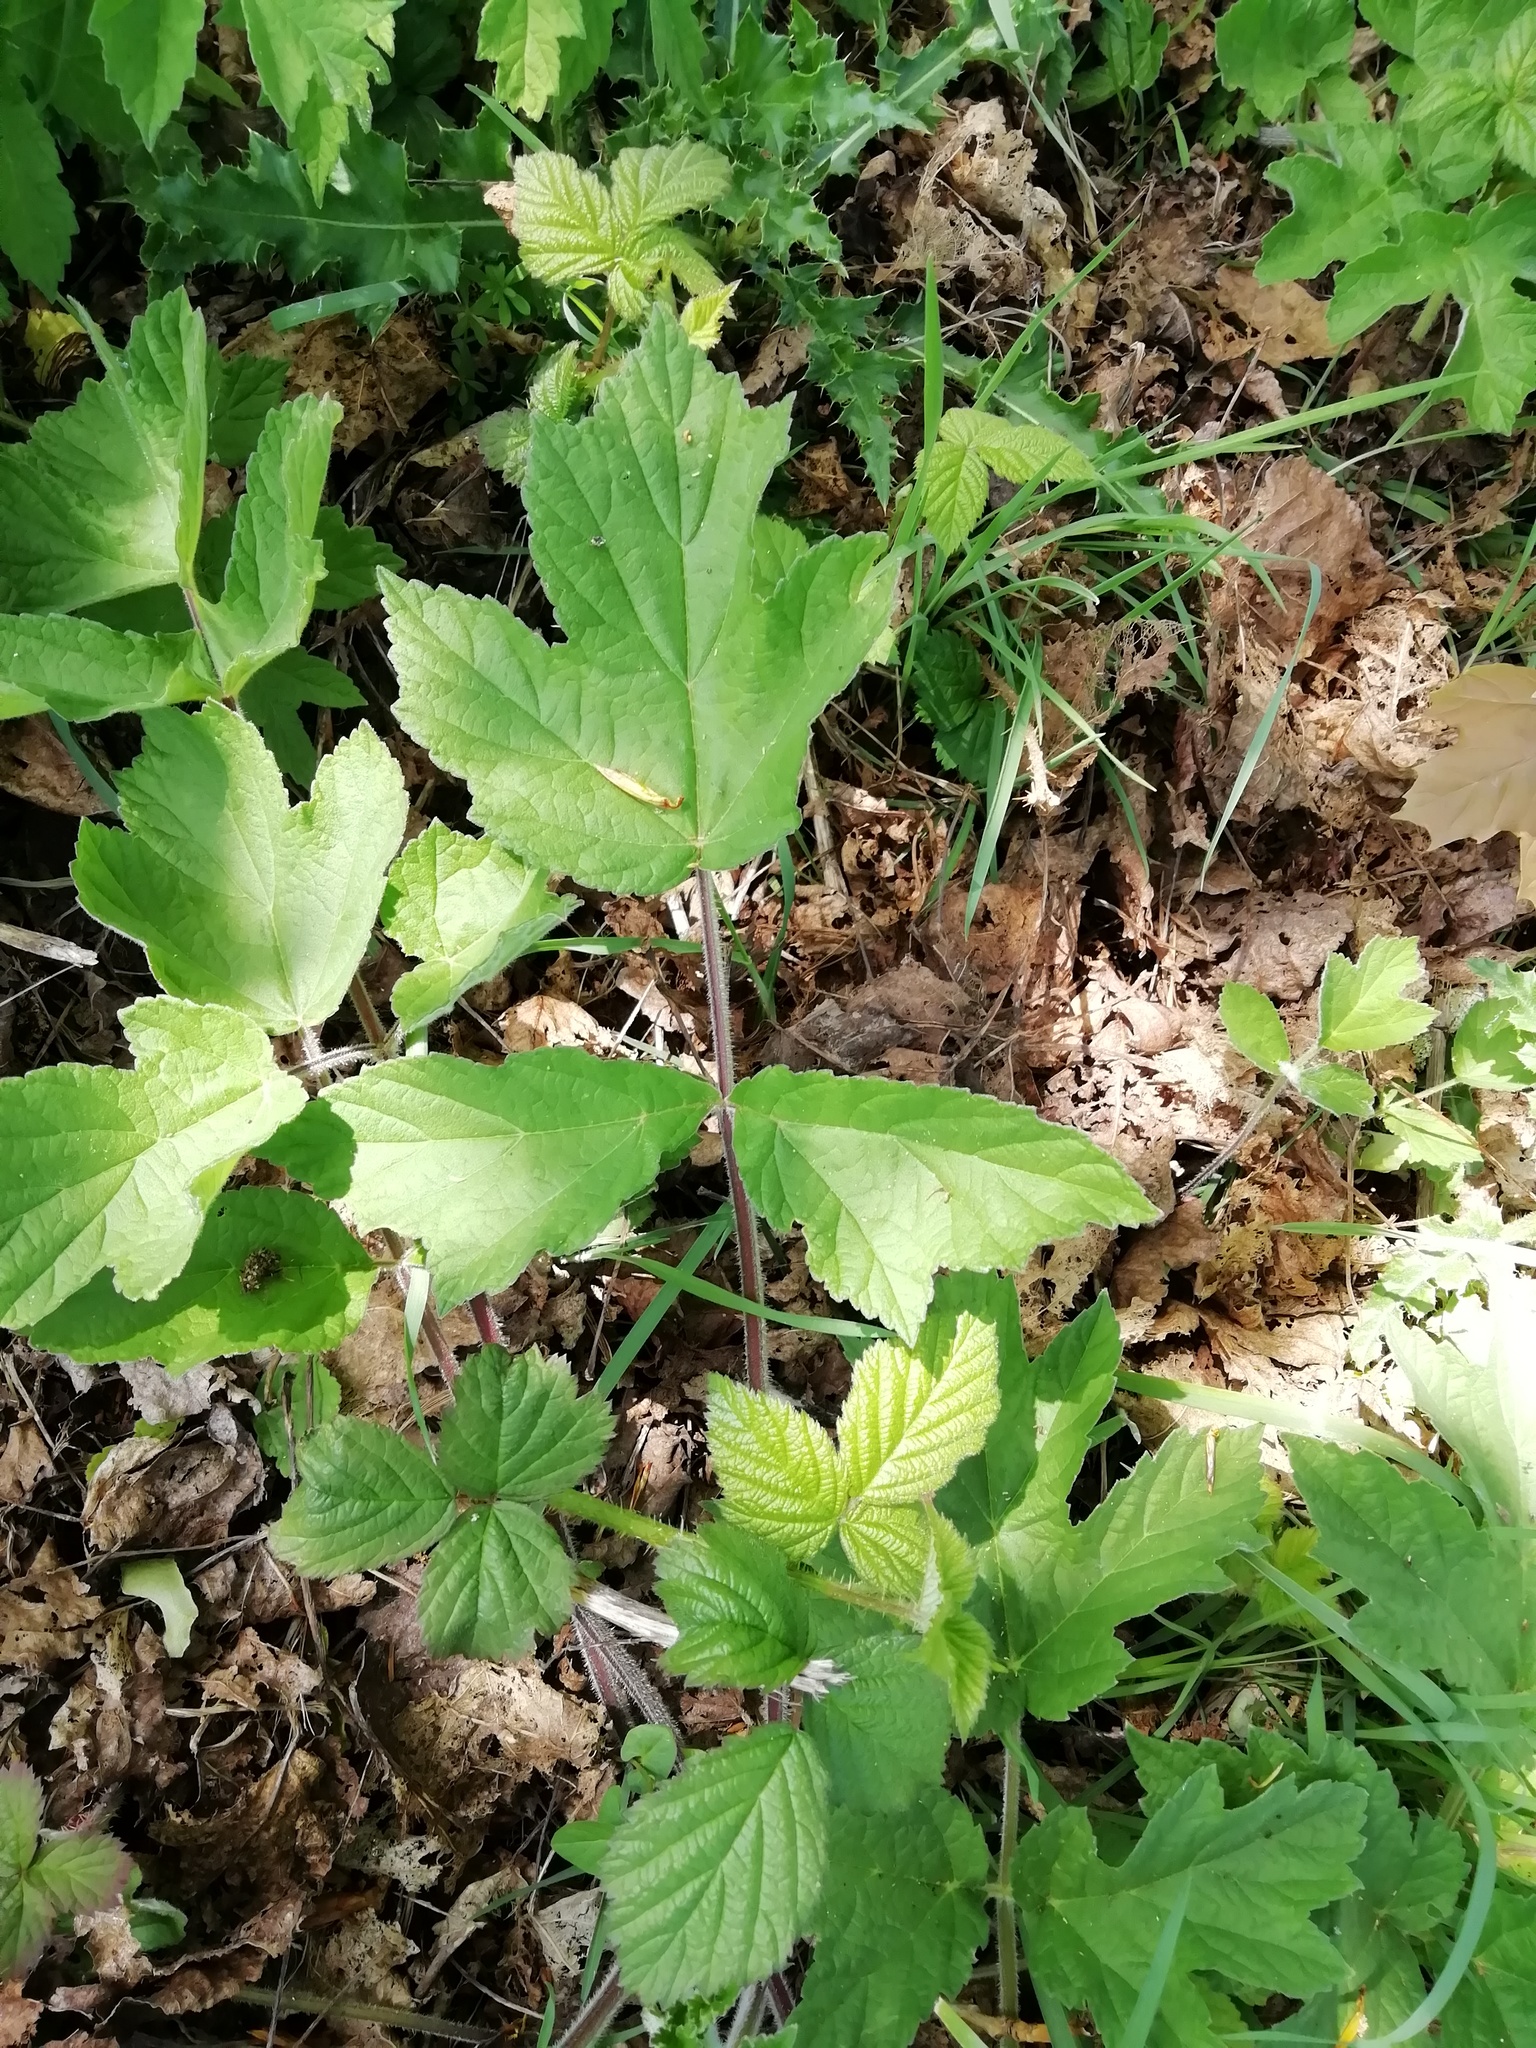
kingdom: Plantae
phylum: Tracheophyta
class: Magnoliopsida
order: Apiales
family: Apiaceae
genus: Heracleum
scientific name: Heracleum sphondylium
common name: Hogweed
